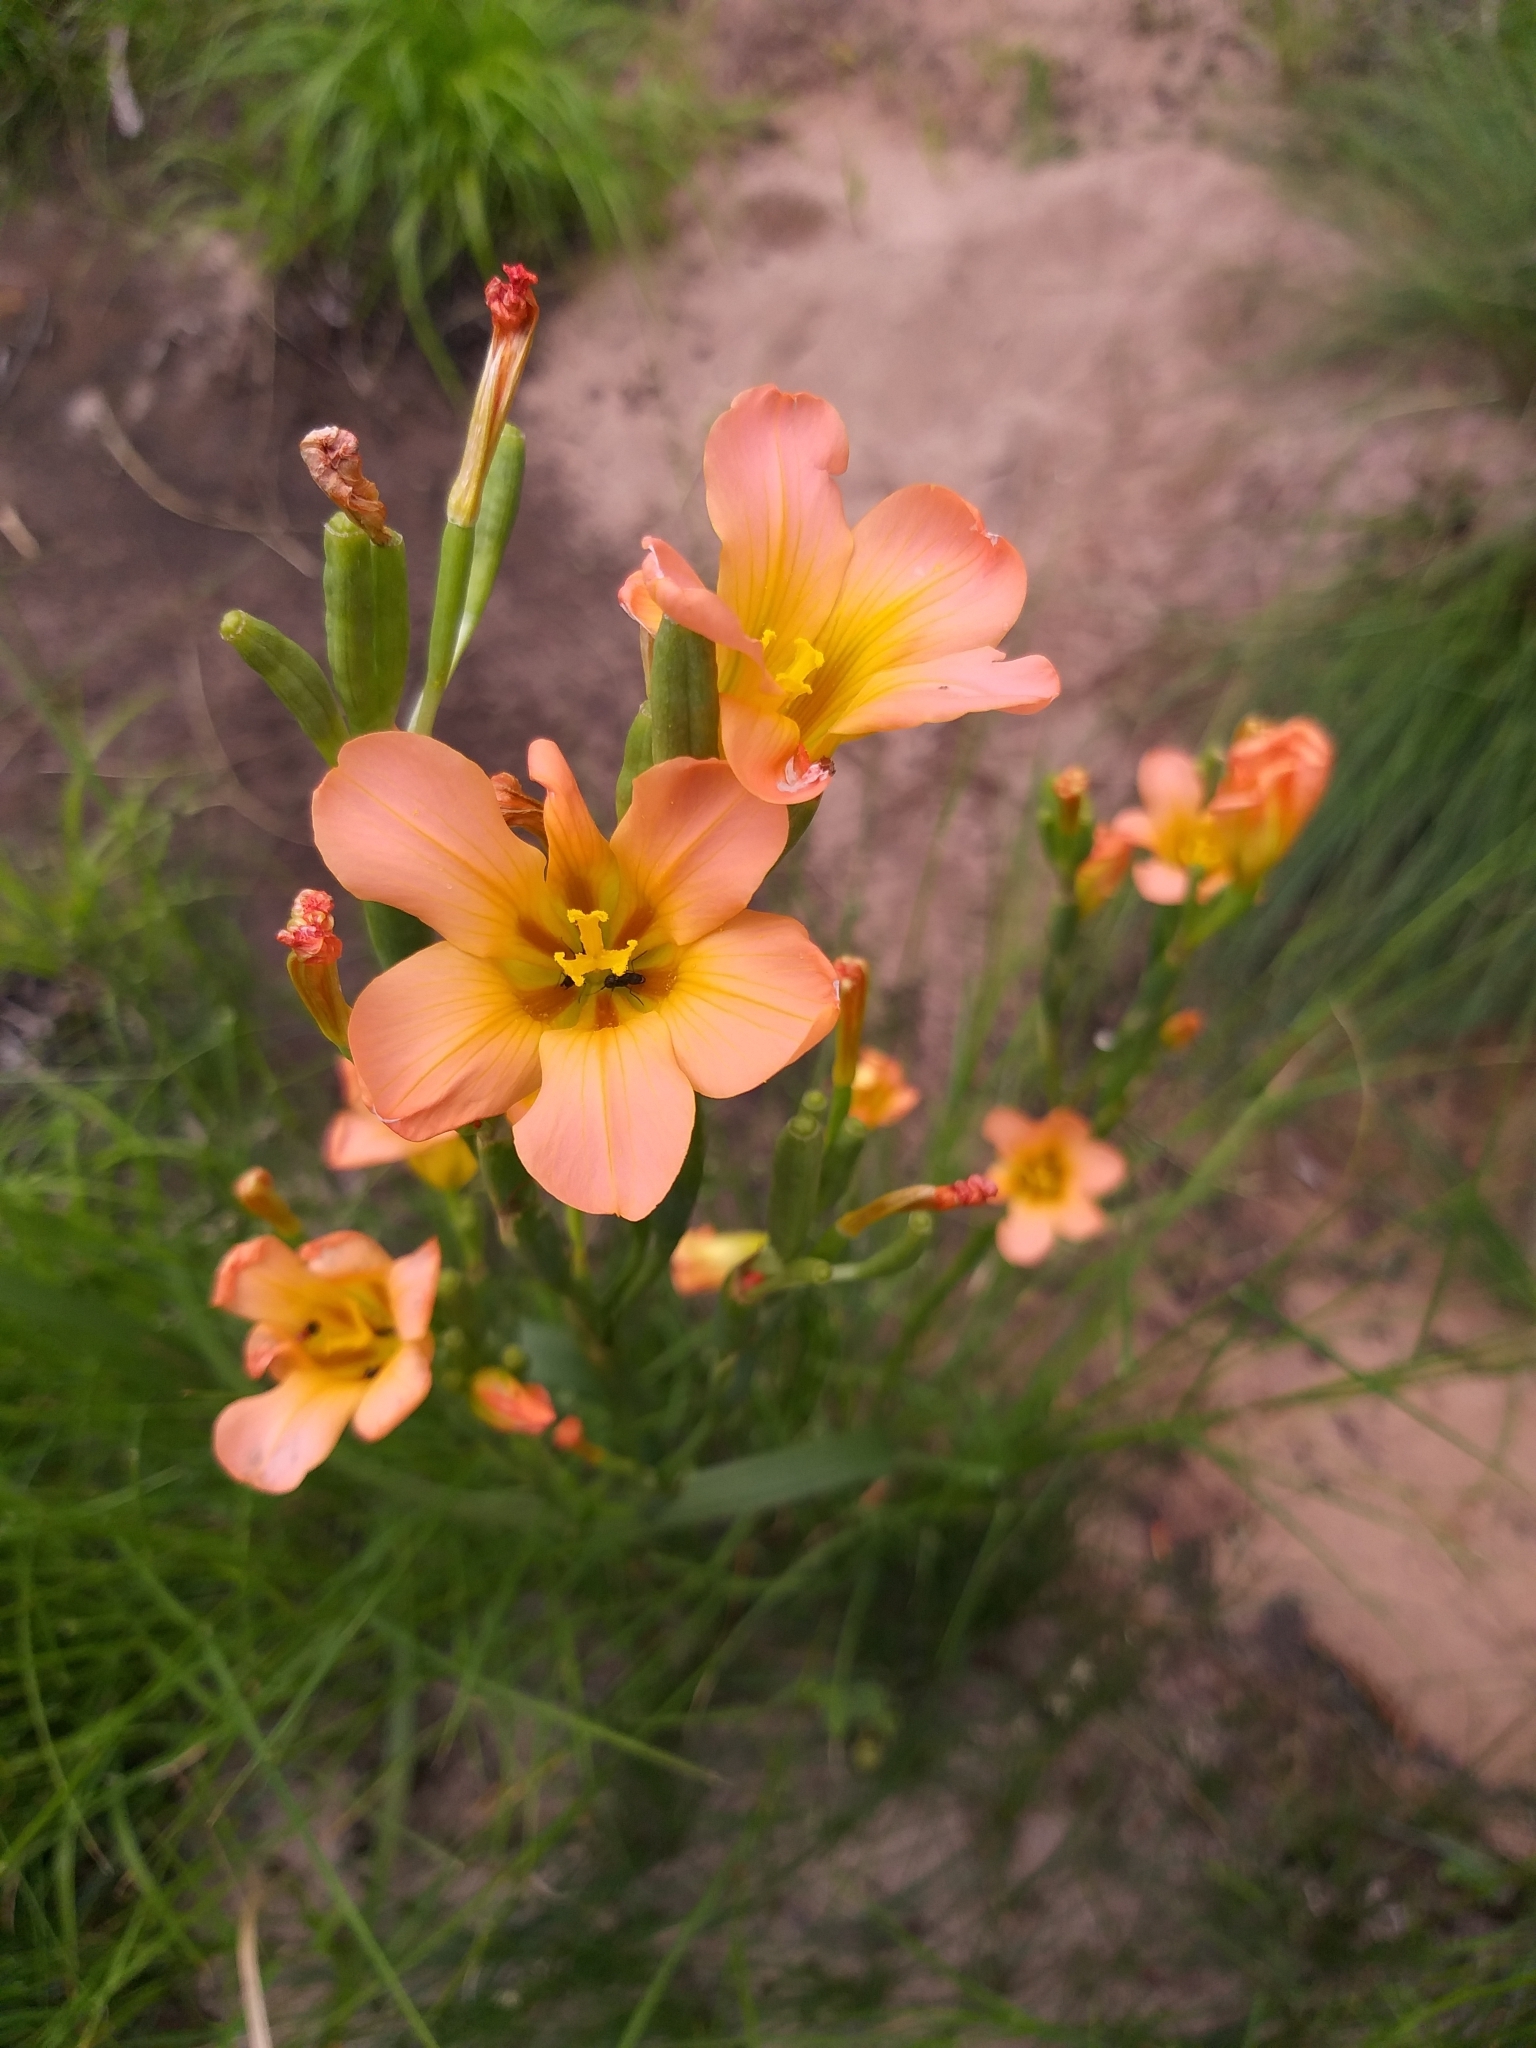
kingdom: Plantae
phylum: Tracheophyta
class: Liliopsida
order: Asparagales
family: Iridaceae
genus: Moraea
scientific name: Moraea ochroleuca
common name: Red tulp
